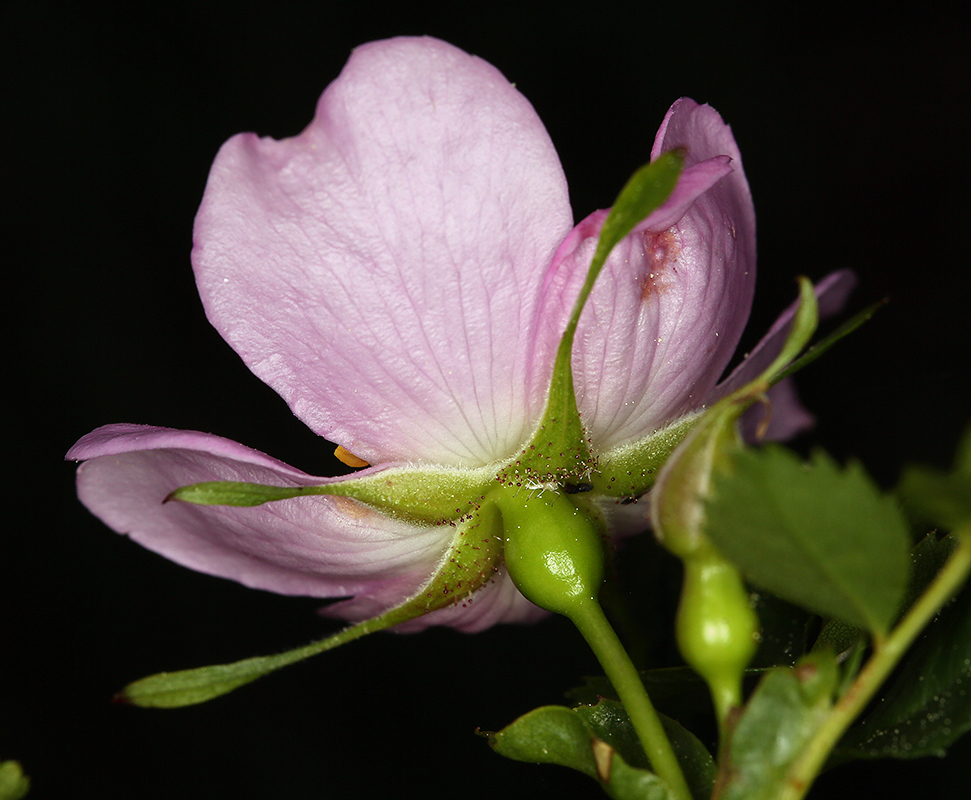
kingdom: Plantae
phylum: Tracheophyta
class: Magnoliopsida
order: Rosales
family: Rosaceae
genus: Rosa
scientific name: Rosa pisocarpa
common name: Cluster rose
